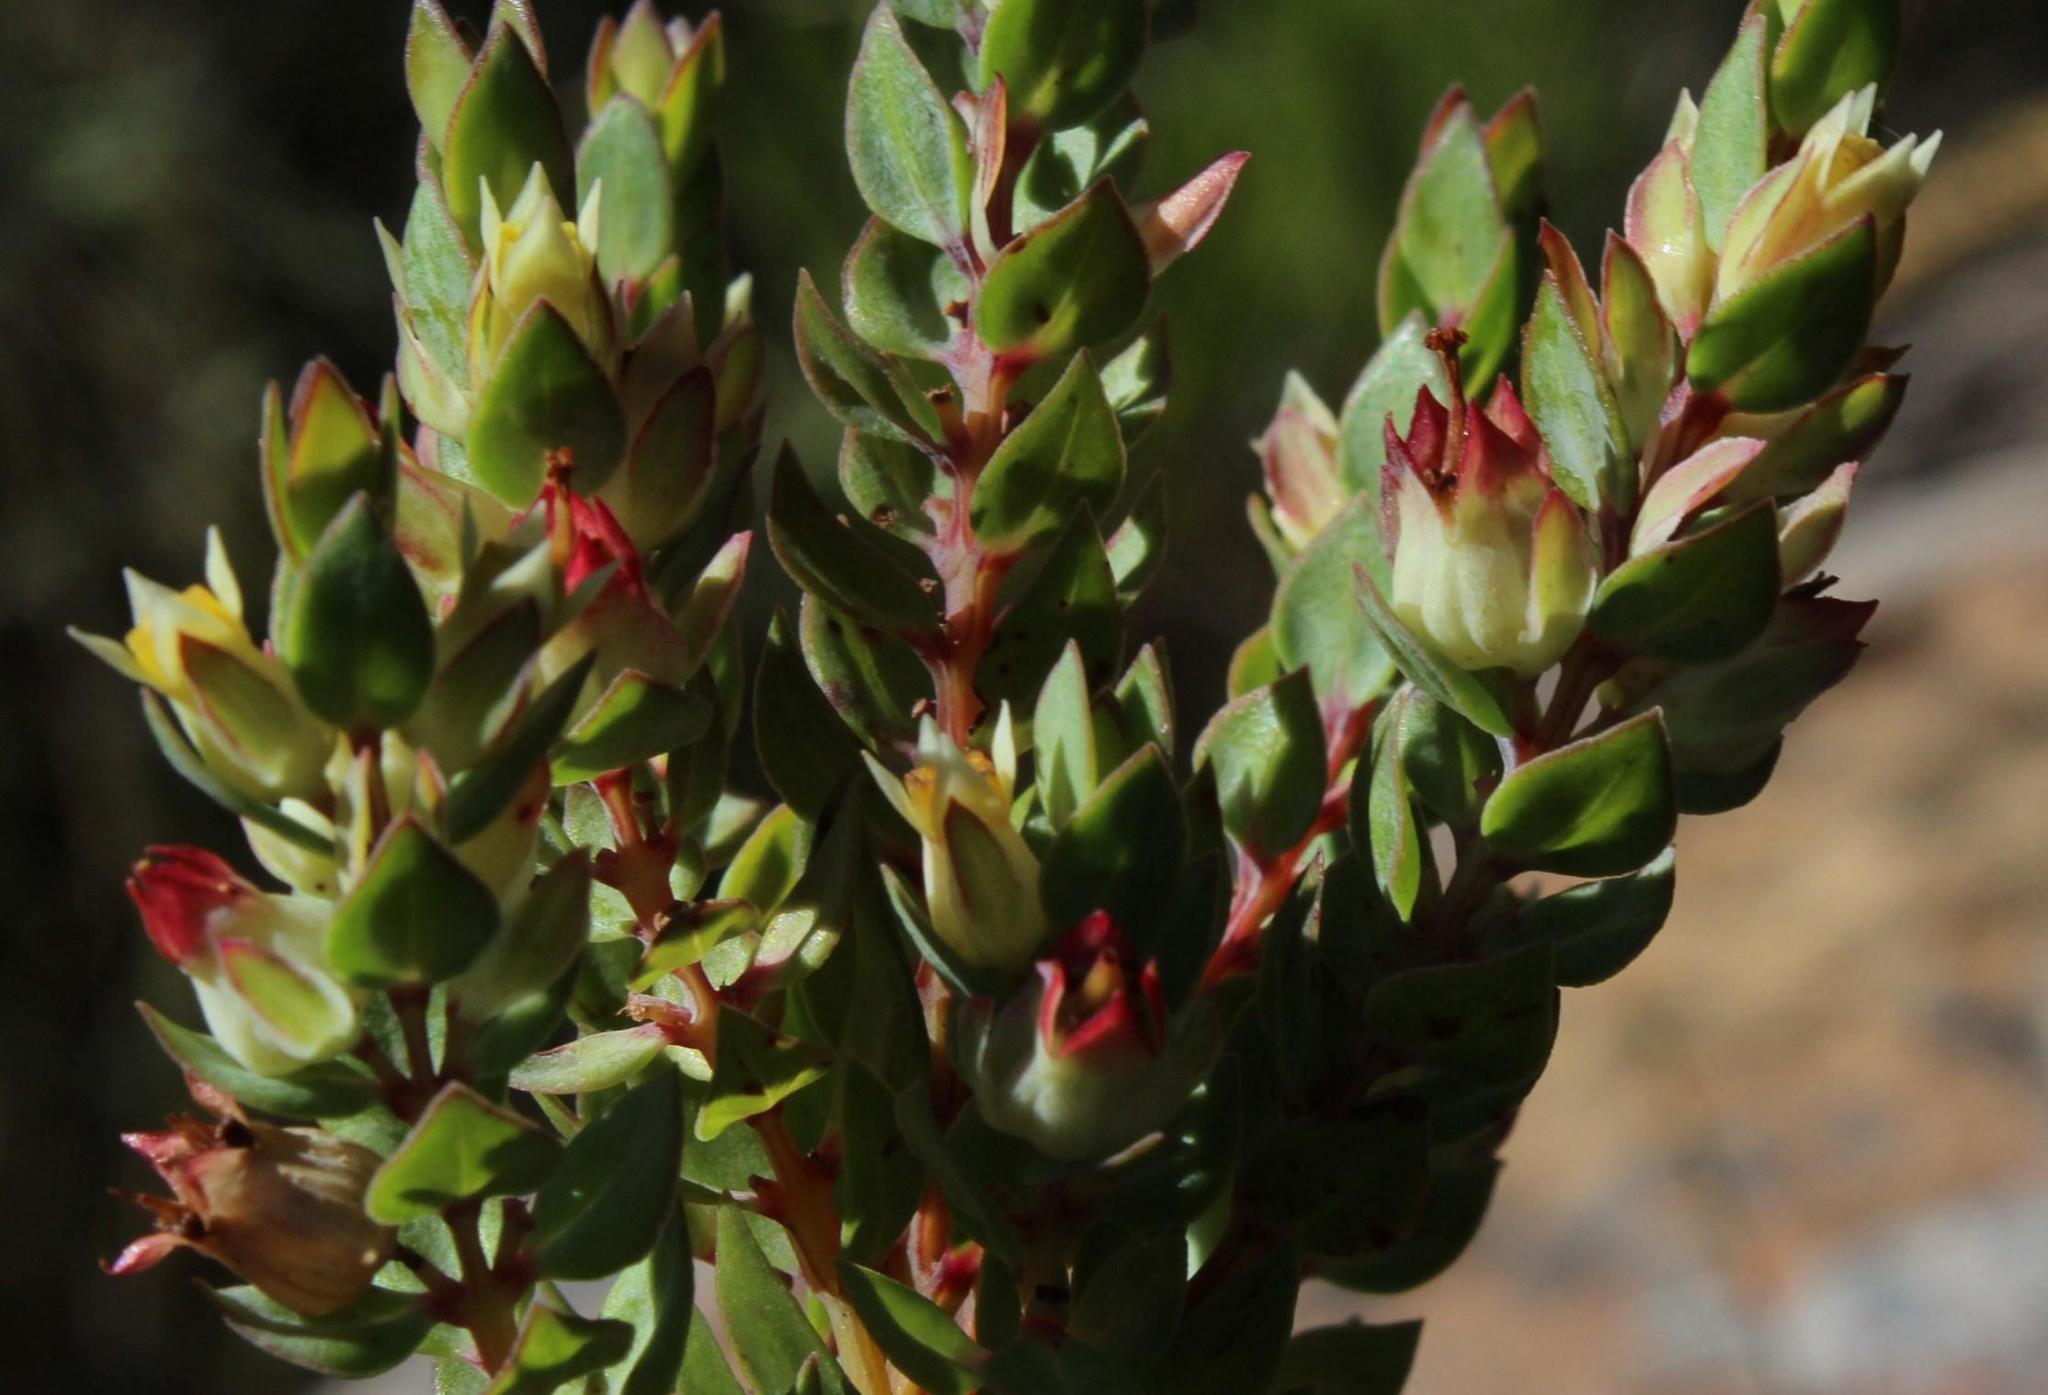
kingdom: Plantae
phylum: Tracheophyta
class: Magnoliopsida
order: Myrtales
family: Penaeaceae
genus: Stylapterus
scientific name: Stylapterus sulcatus
